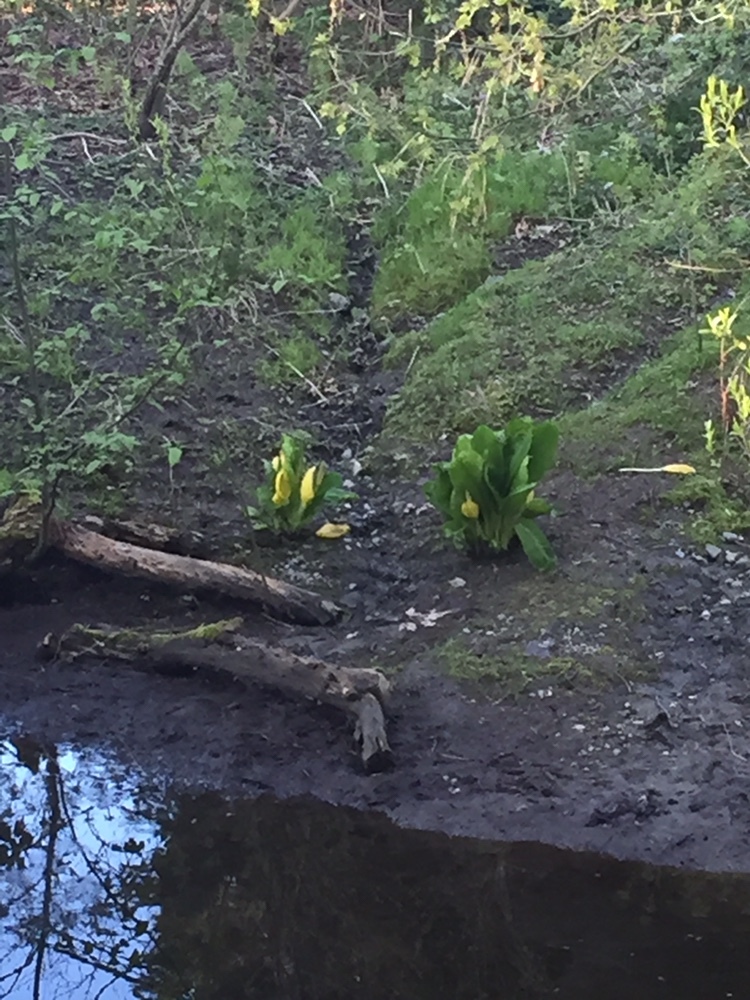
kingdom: Plantae
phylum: Tracheophyta
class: Liliopsida
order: Alismatales
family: Araceae
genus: Lysichiton
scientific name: Lysichiton americanus
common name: American skunk cabbage
